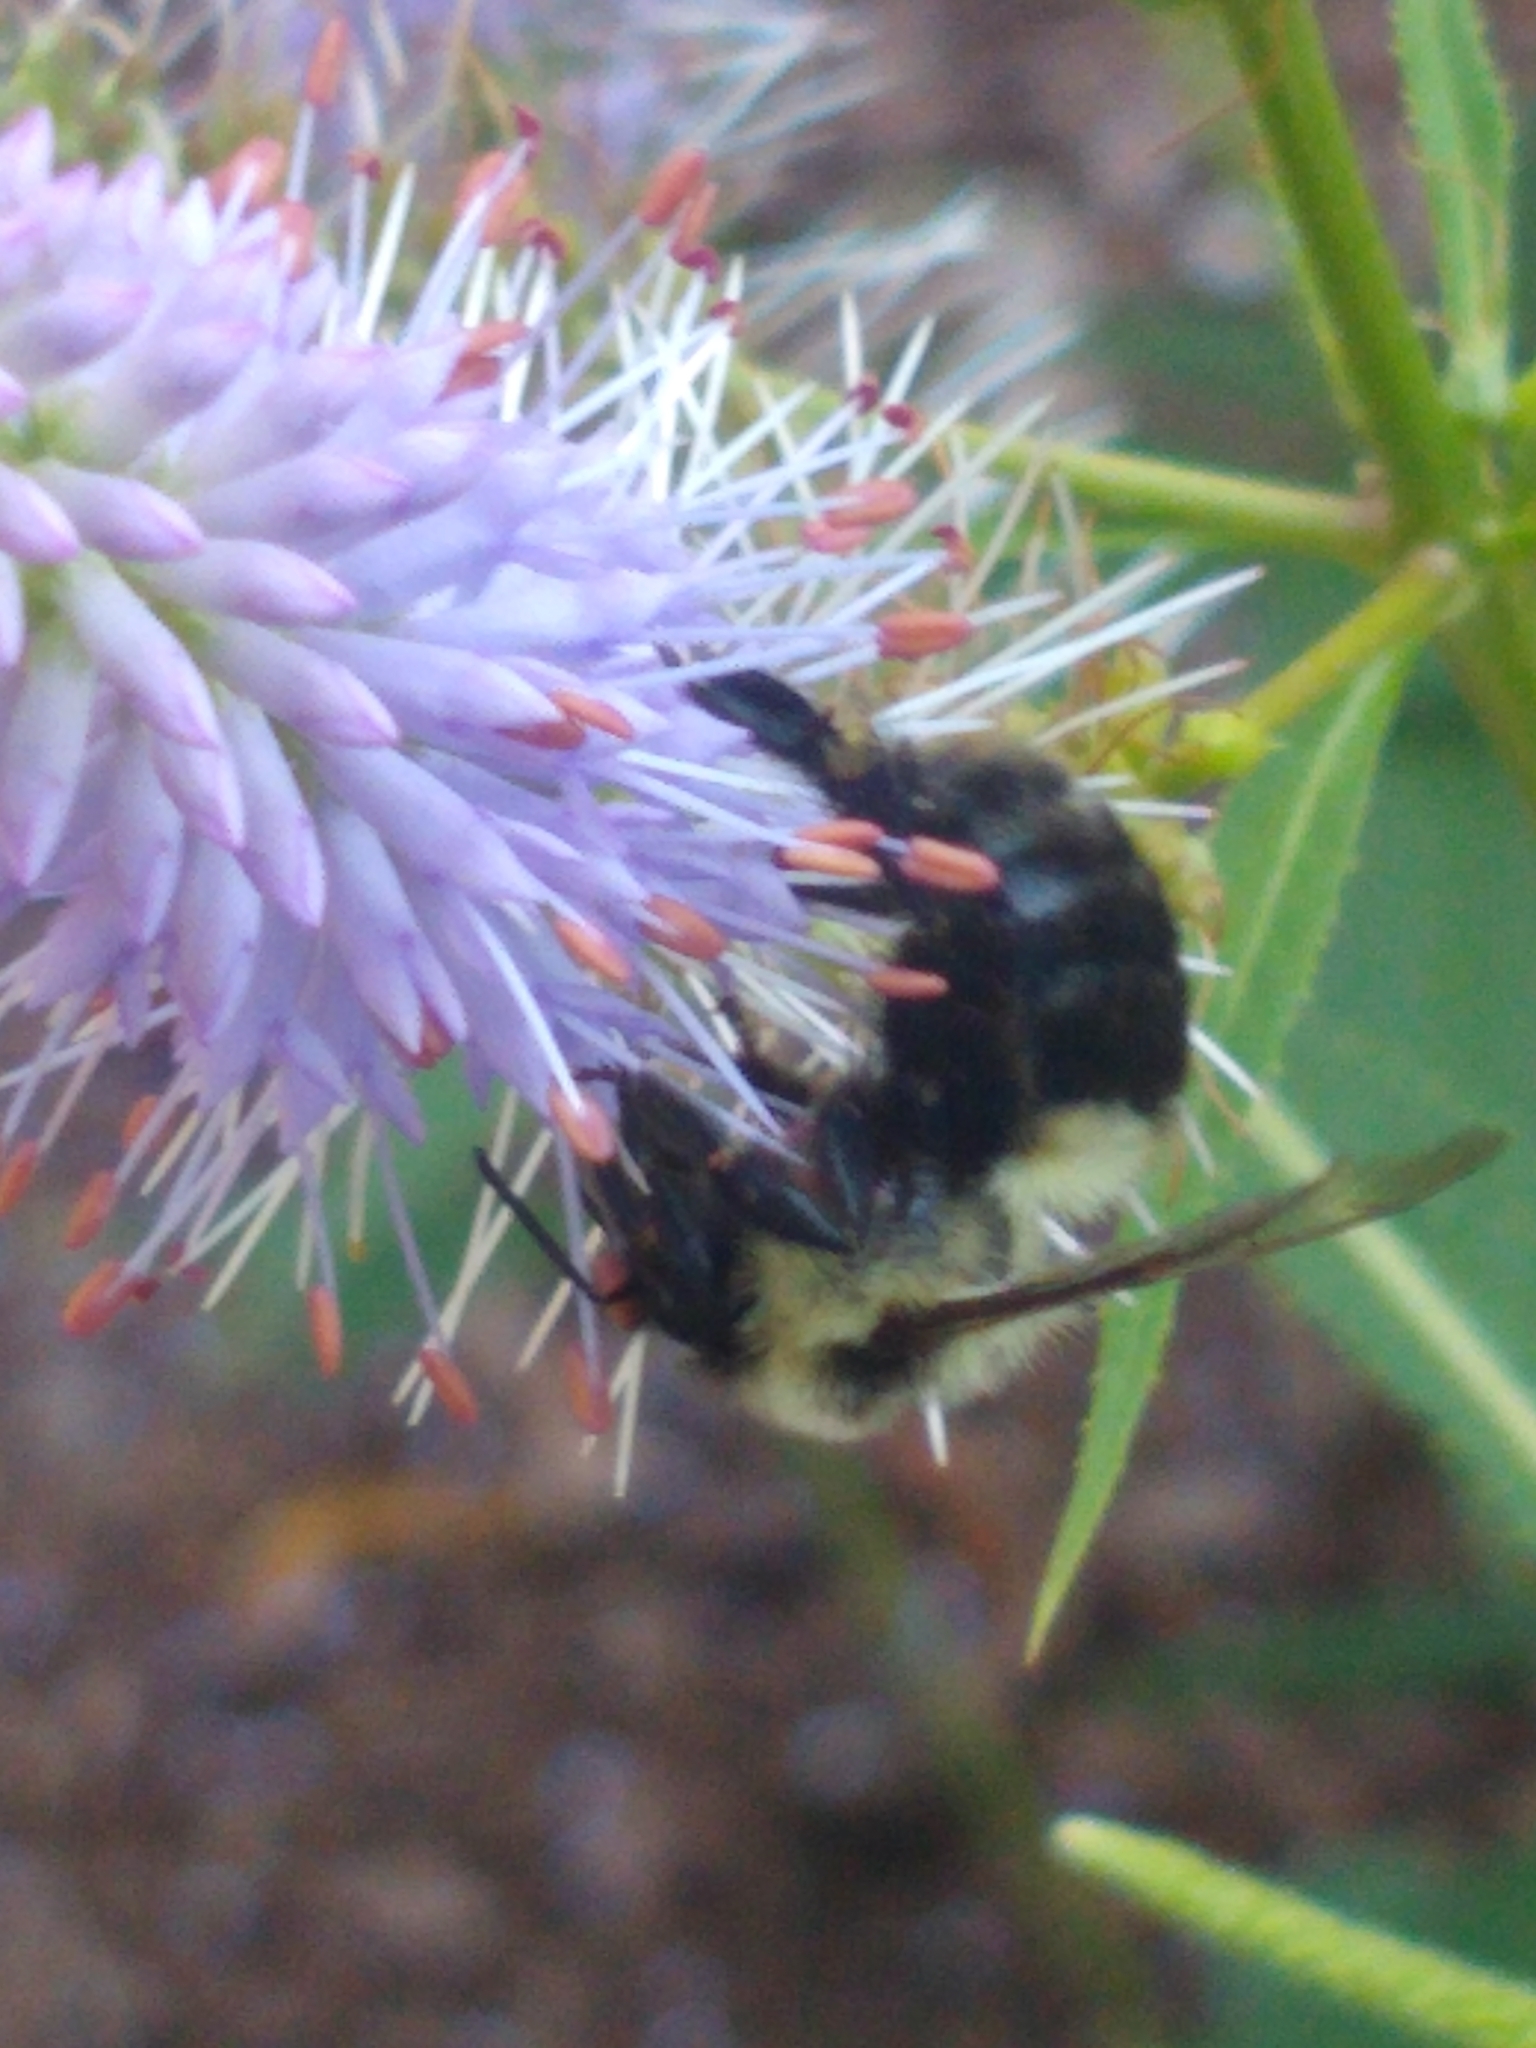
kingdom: Animalia
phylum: Arthropoda
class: Insecta
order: Hymenoptera
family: Apidae
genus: Bombus
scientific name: Bombus impatiens
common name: Common eastern bumble bee
